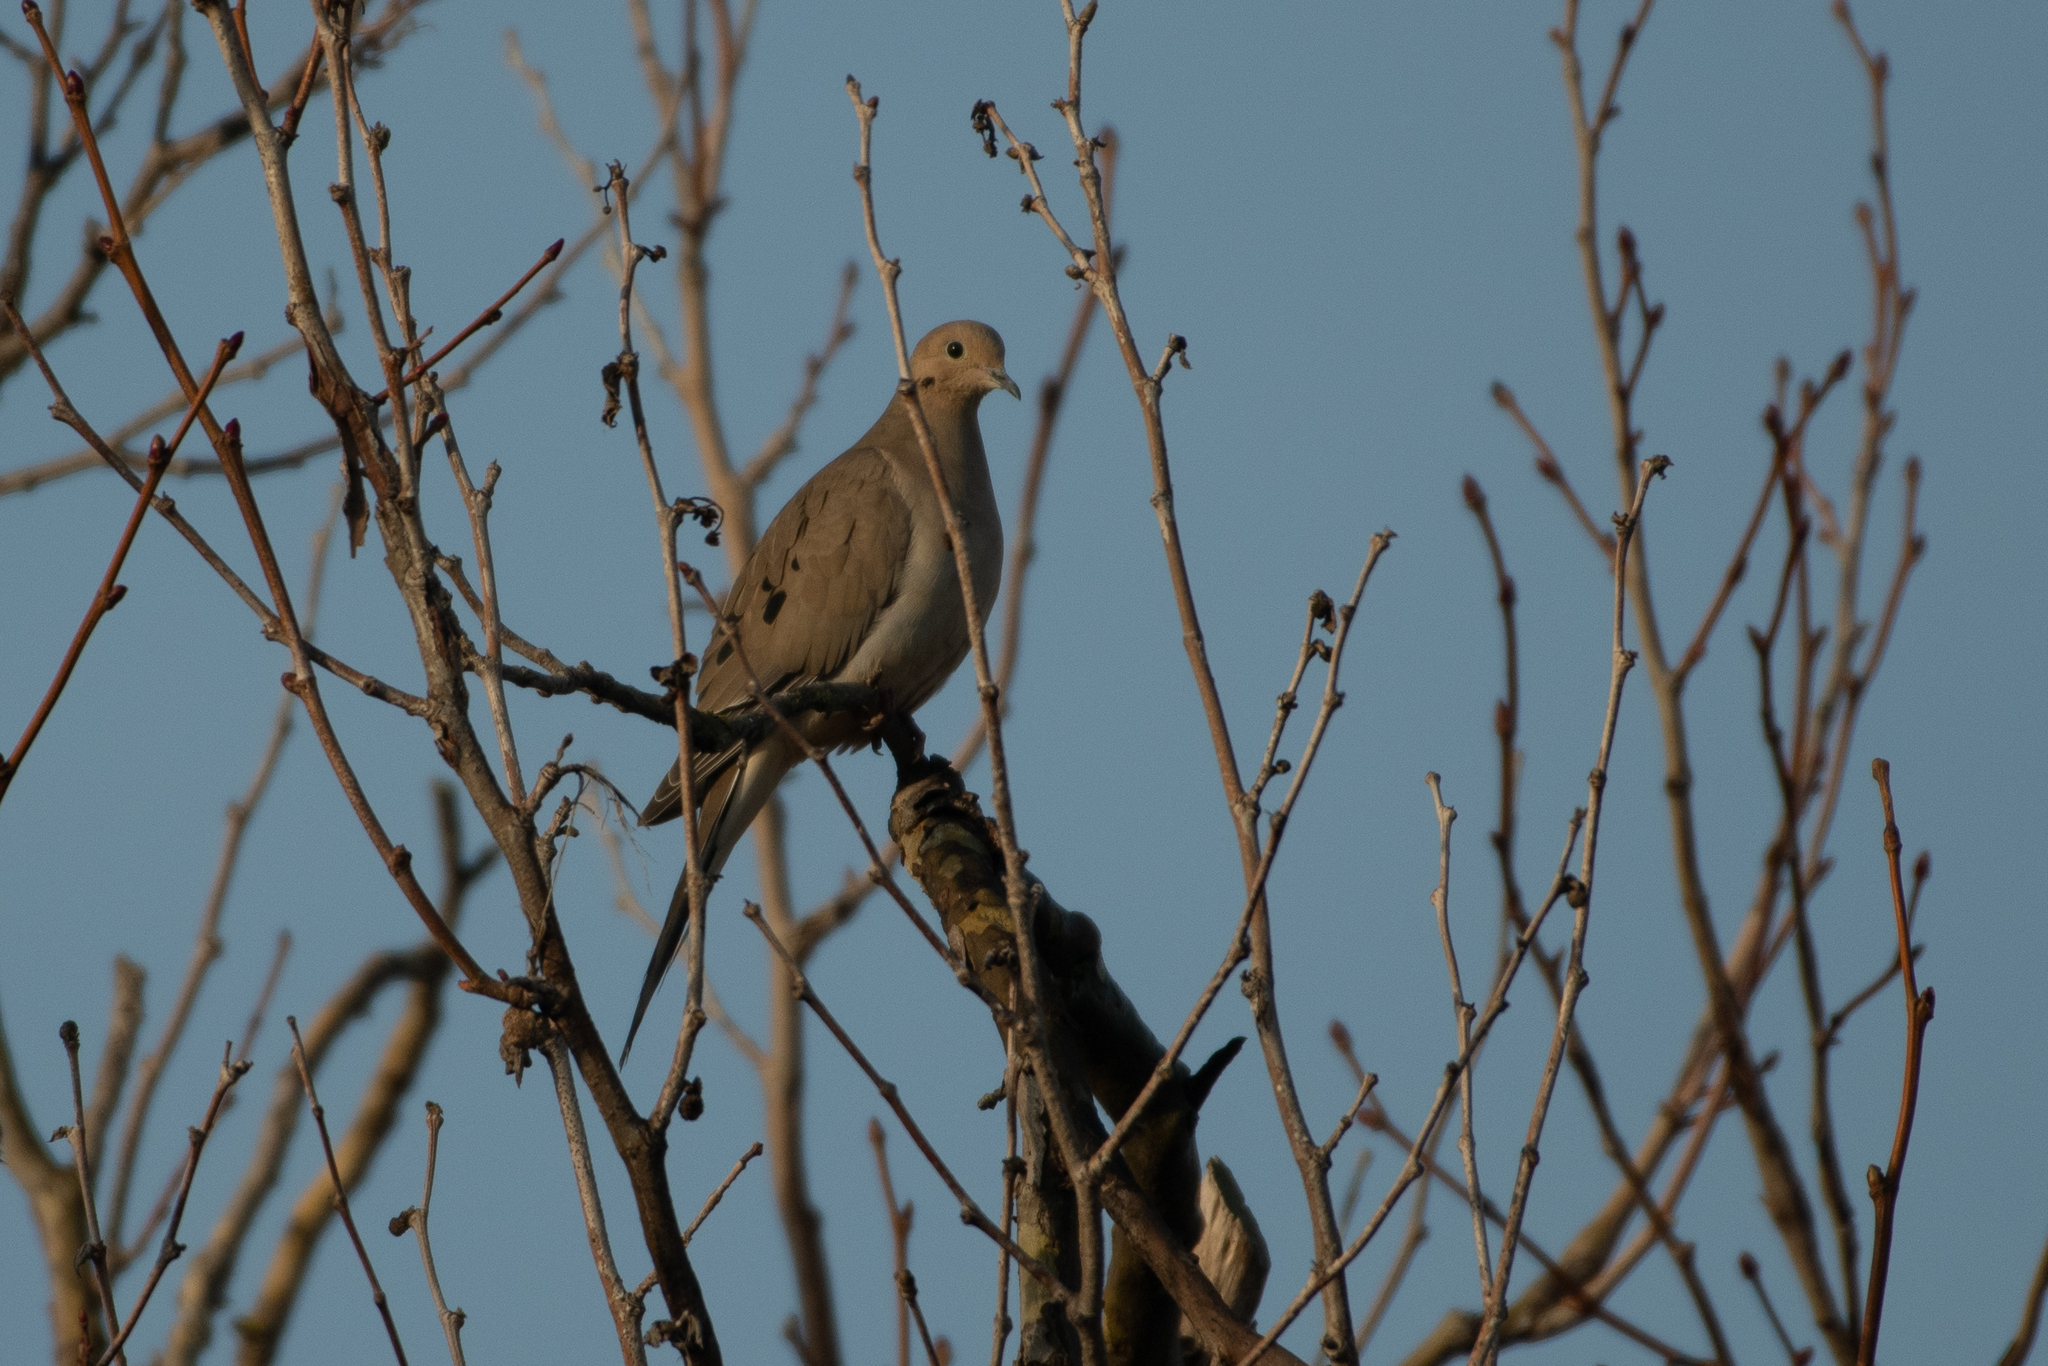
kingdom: Animalia
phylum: Chordata
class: Aves
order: Columbiformes
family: Columbidae
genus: Zenaida
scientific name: Zenaida macroura
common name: Mourning dove
